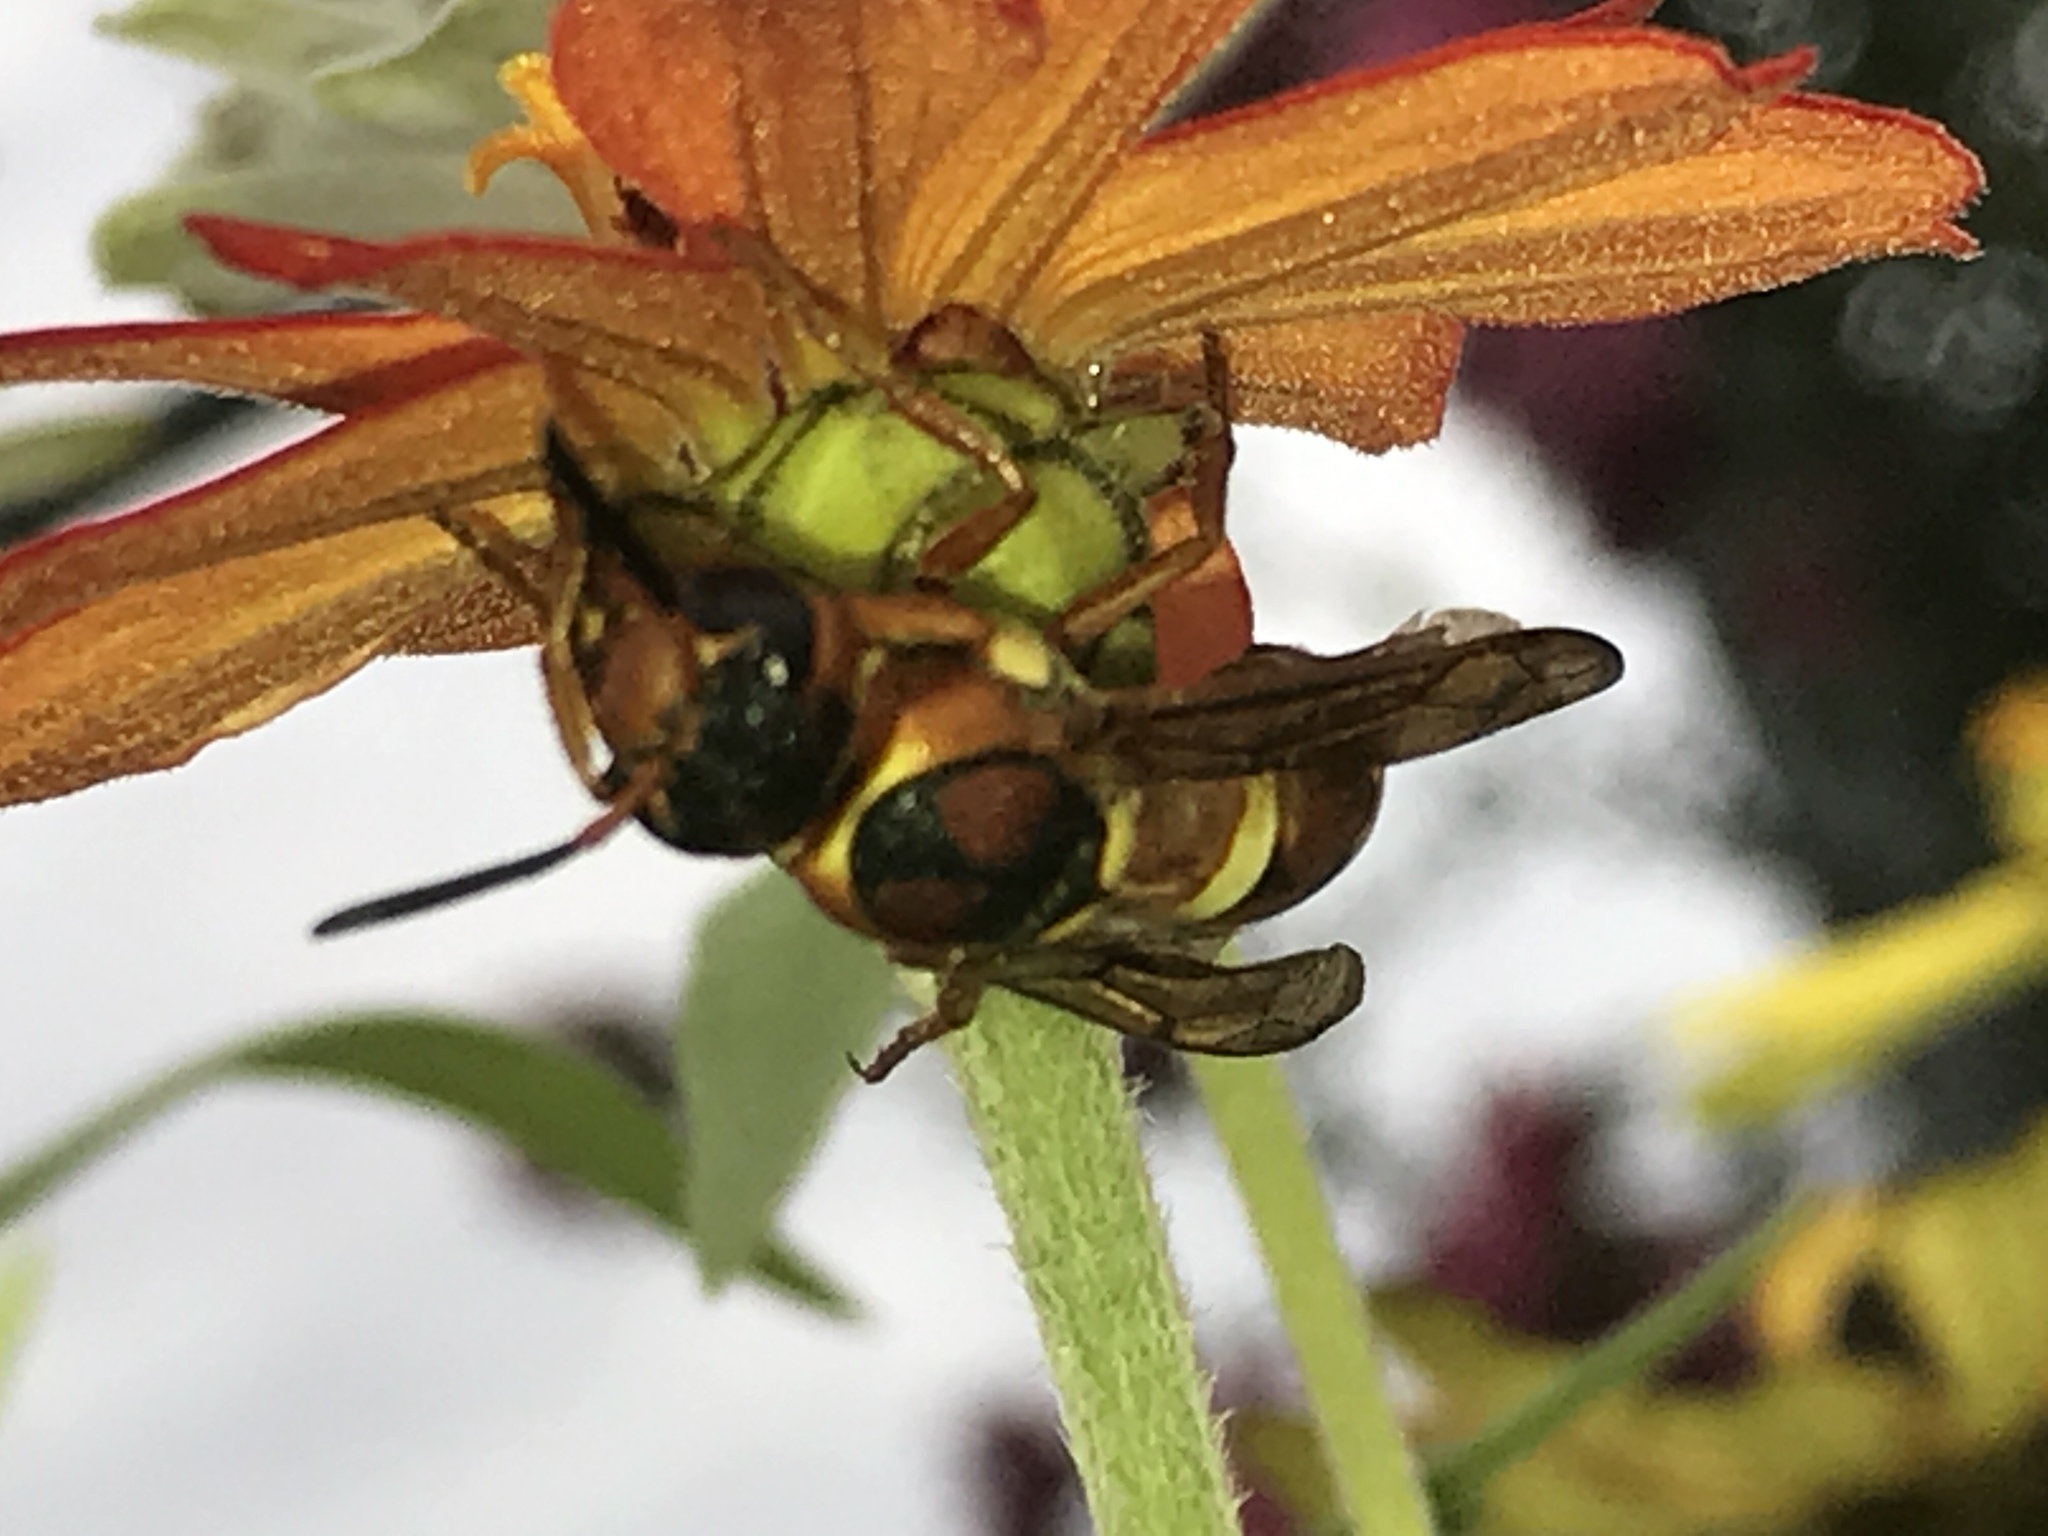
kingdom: Animalia
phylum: Arthropoda
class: Insecta
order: Hymenoptera
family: Eumenidae
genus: Pterocheilus
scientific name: Pterocheilus quinquefasciatus
